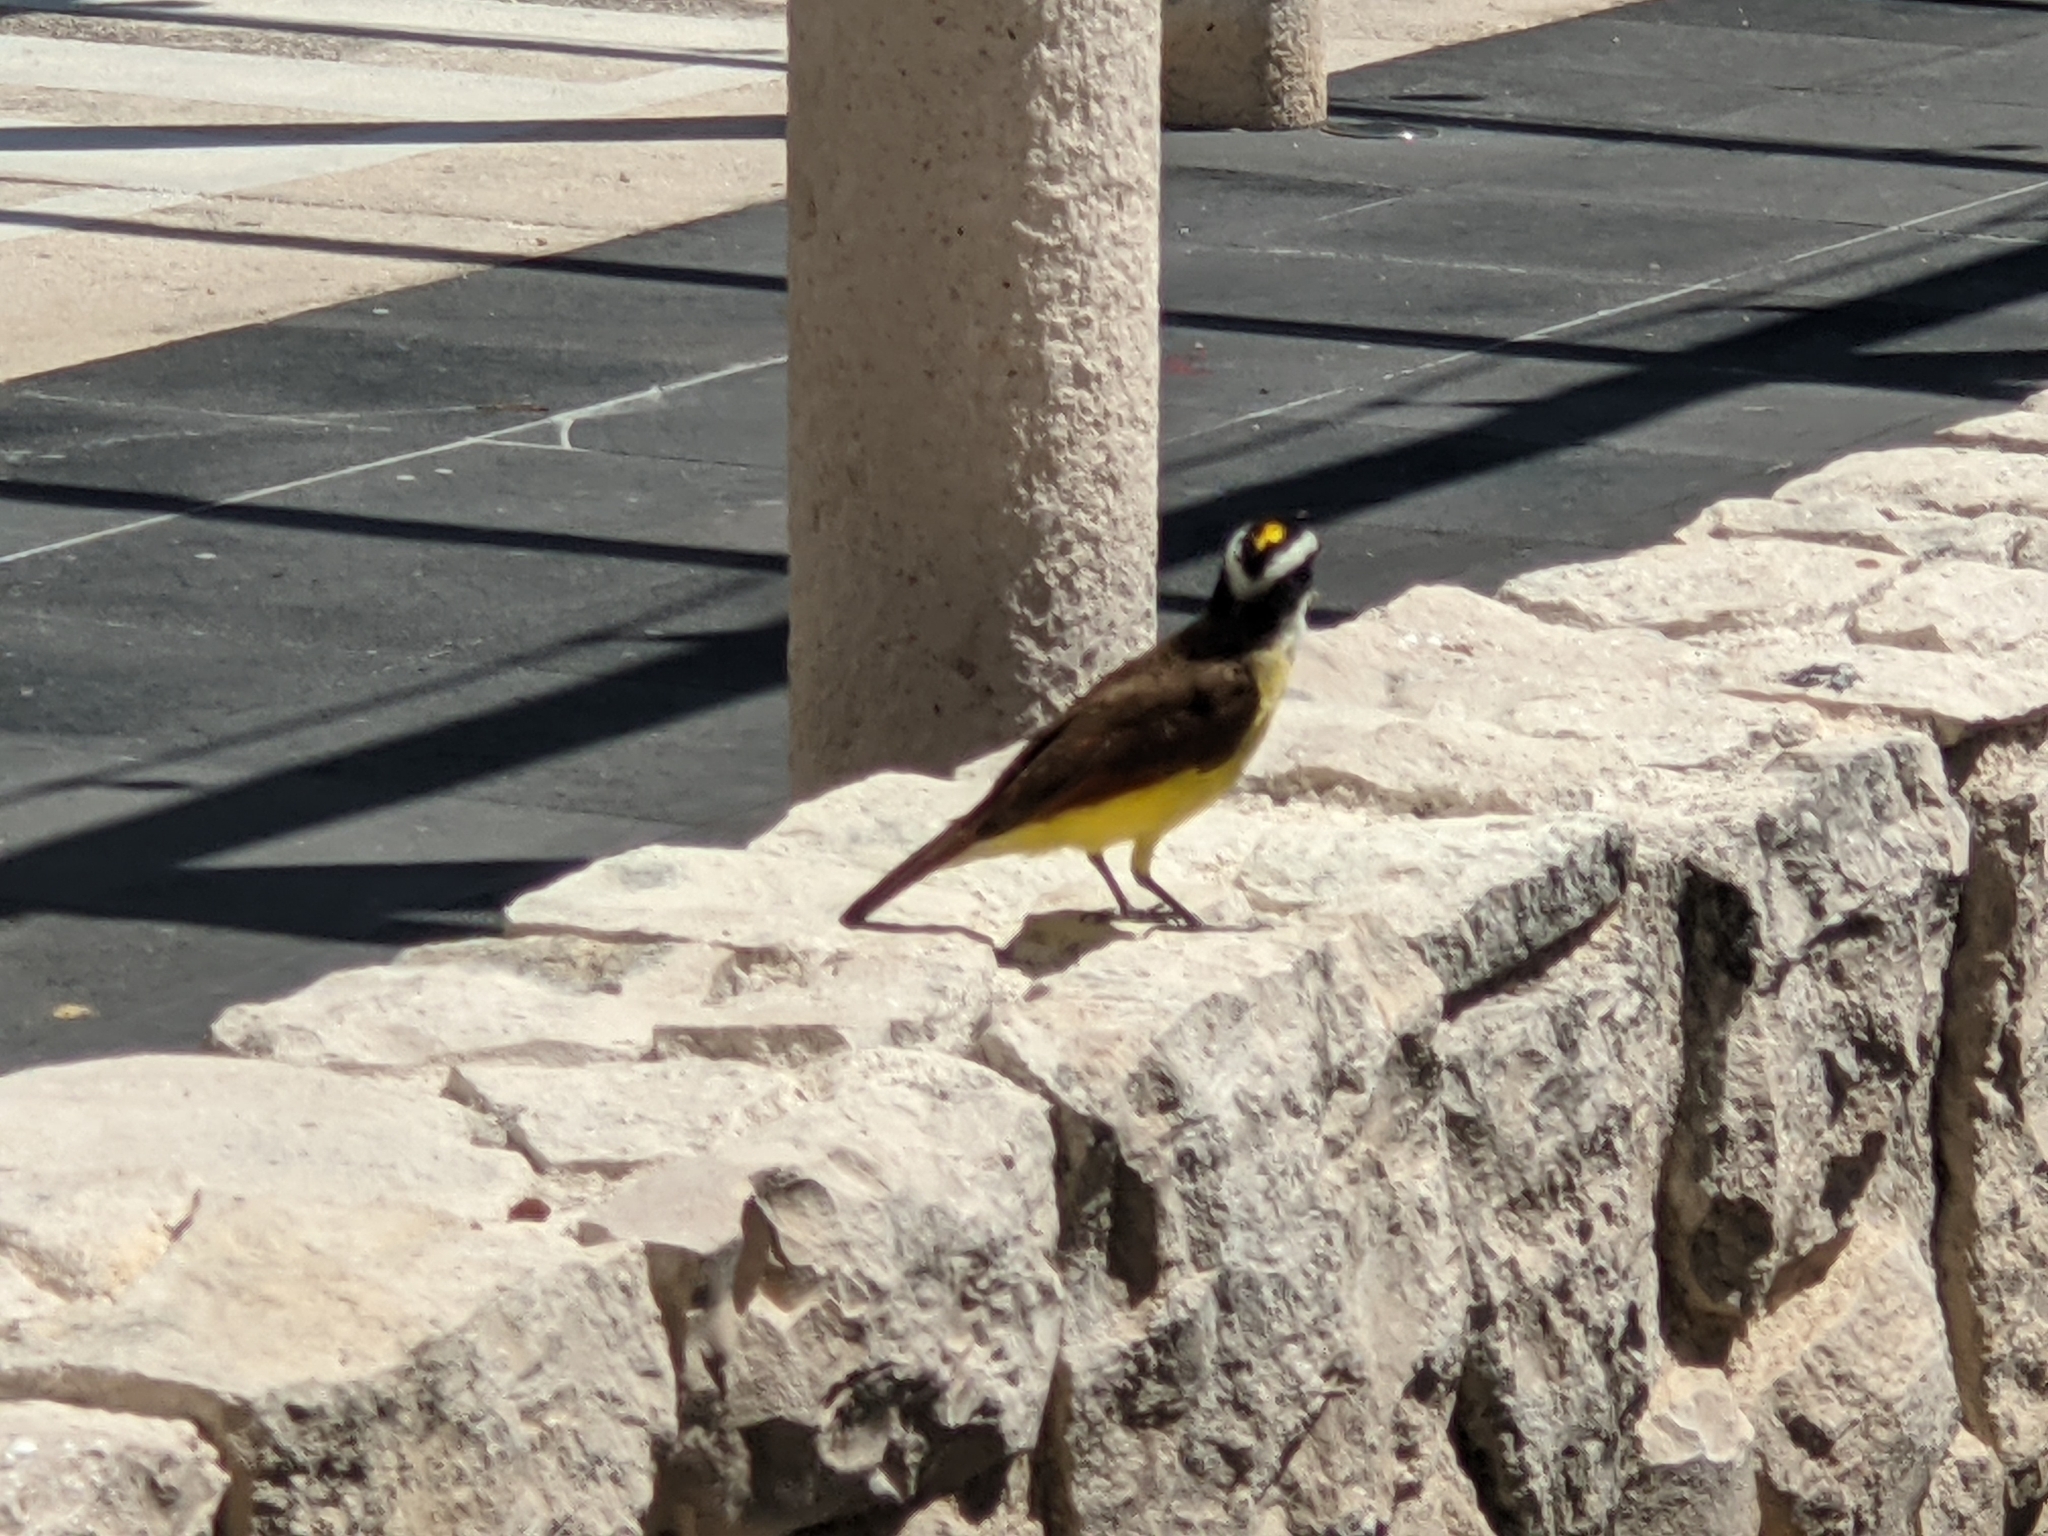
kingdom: Animalia
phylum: Chordata
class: Aves
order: Passeriformes
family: Tyrannidae
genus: Pitangus
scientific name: Pitangus sulphuratus
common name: Great kiskadee
